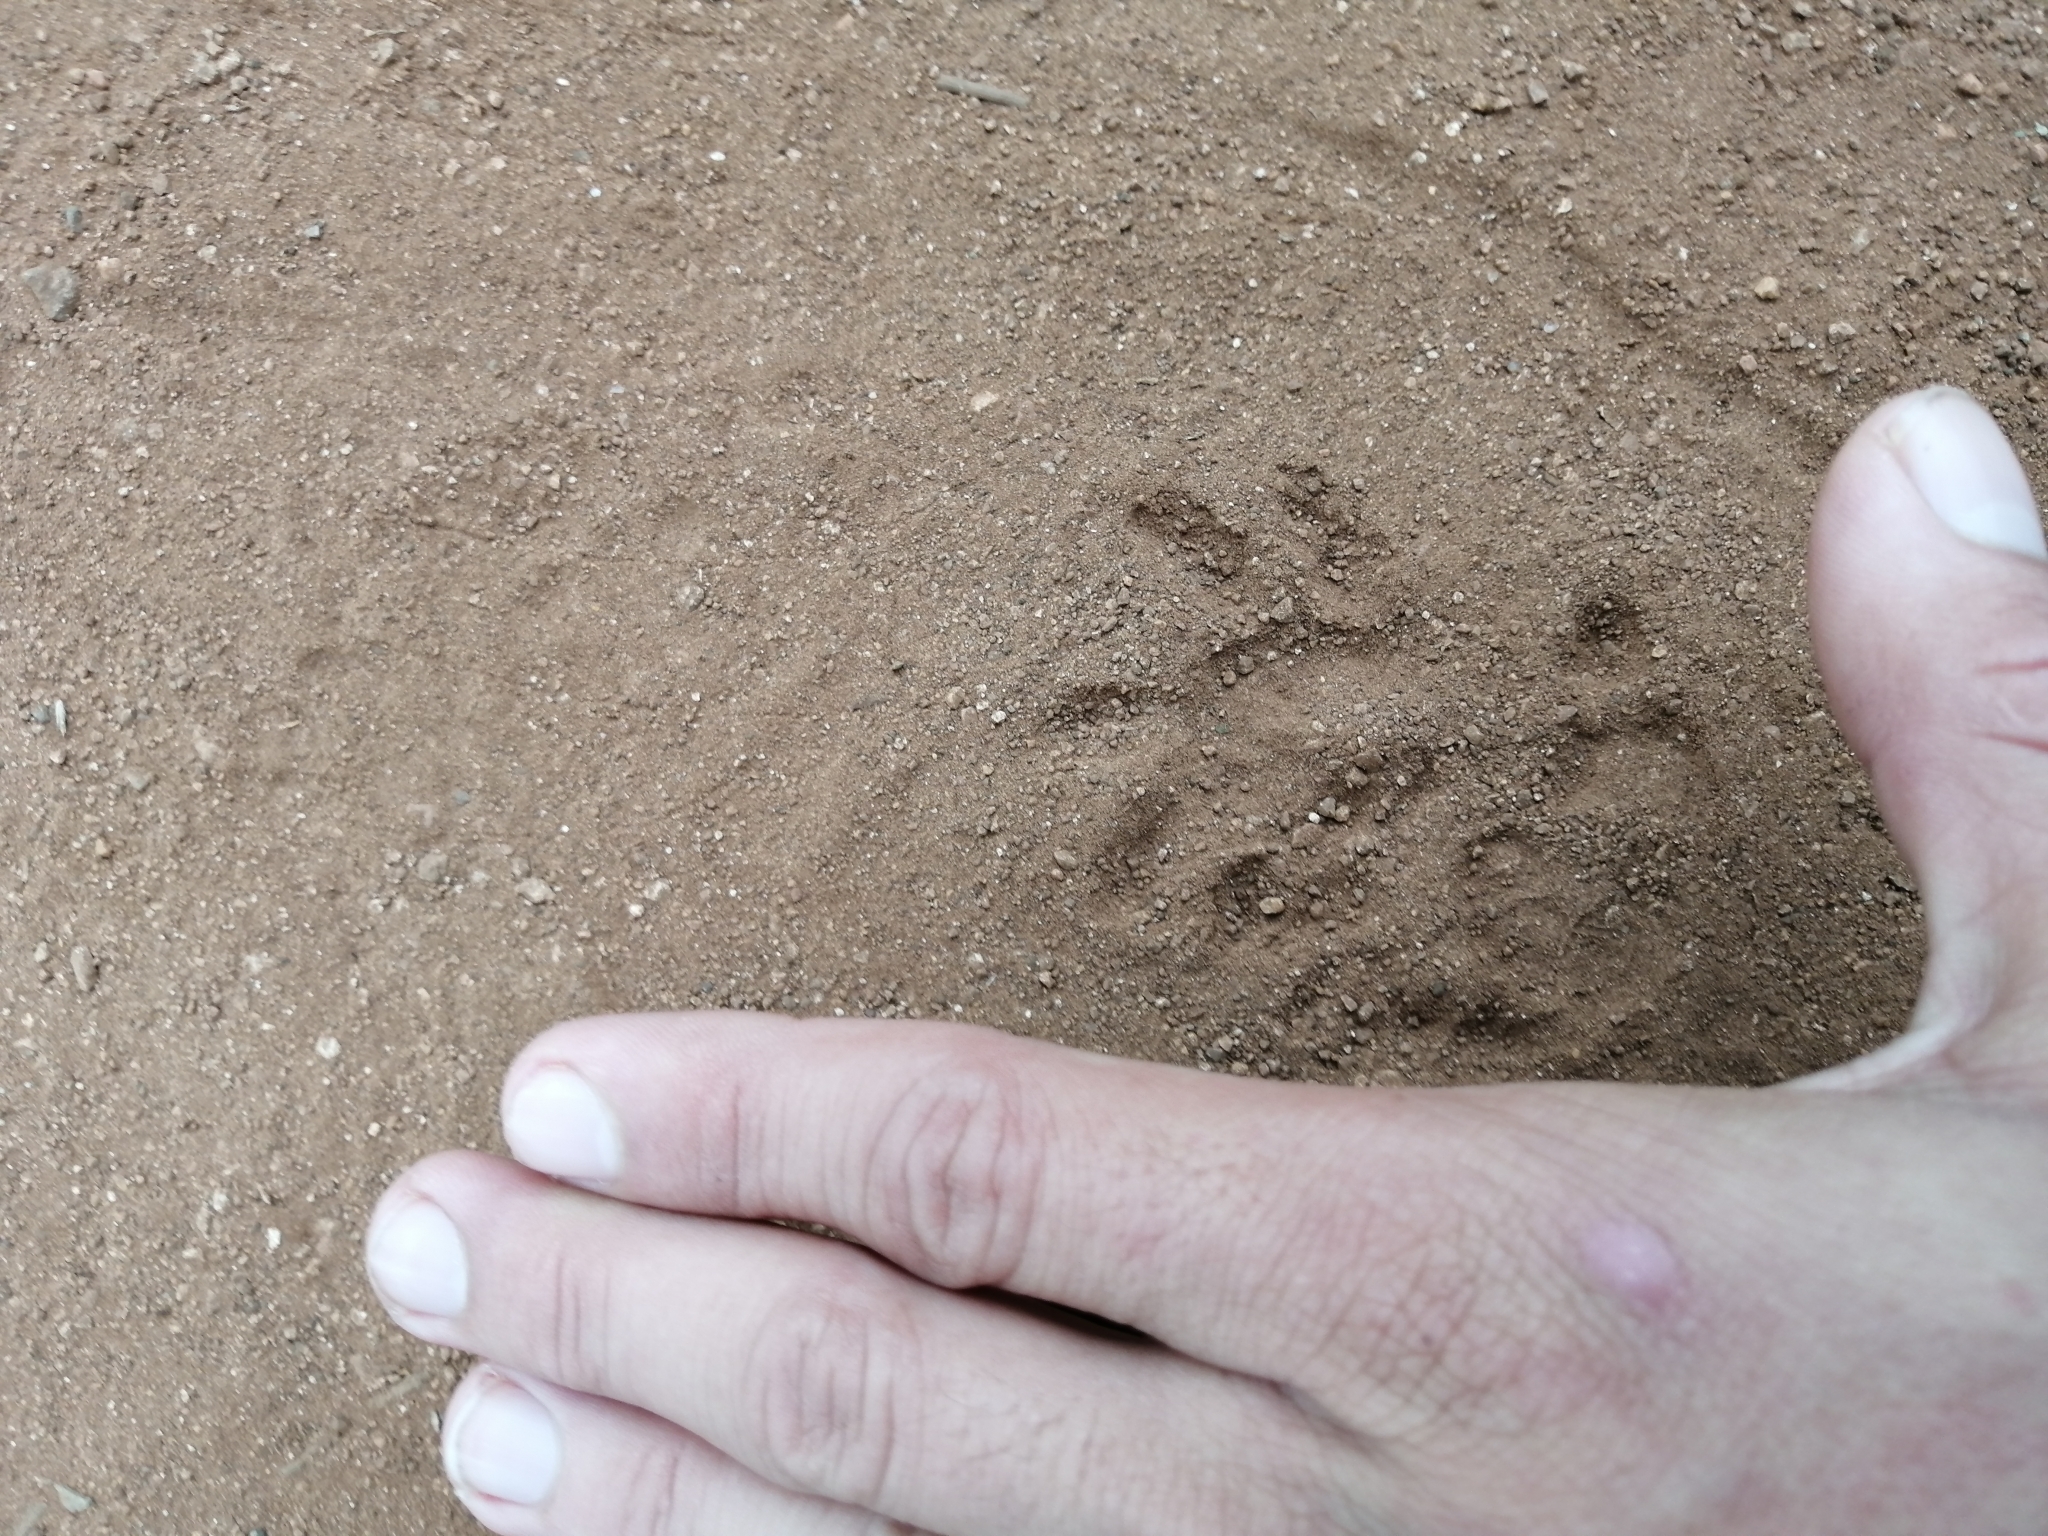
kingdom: Animalia
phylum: Chordata
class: Mammalia
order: Didelphimorphia
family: Didelphidae
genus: Didelphis
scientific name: Didelphis
